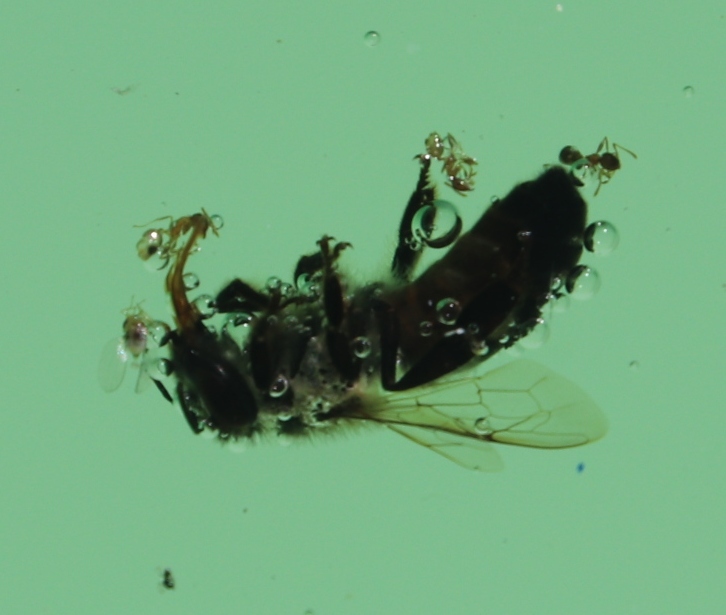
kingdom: Animalia
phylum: Arthropoda
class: Insecta
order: Hymenoptera
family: Apidae
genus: Apis
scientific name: Apis mellifera
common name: Honey bee
